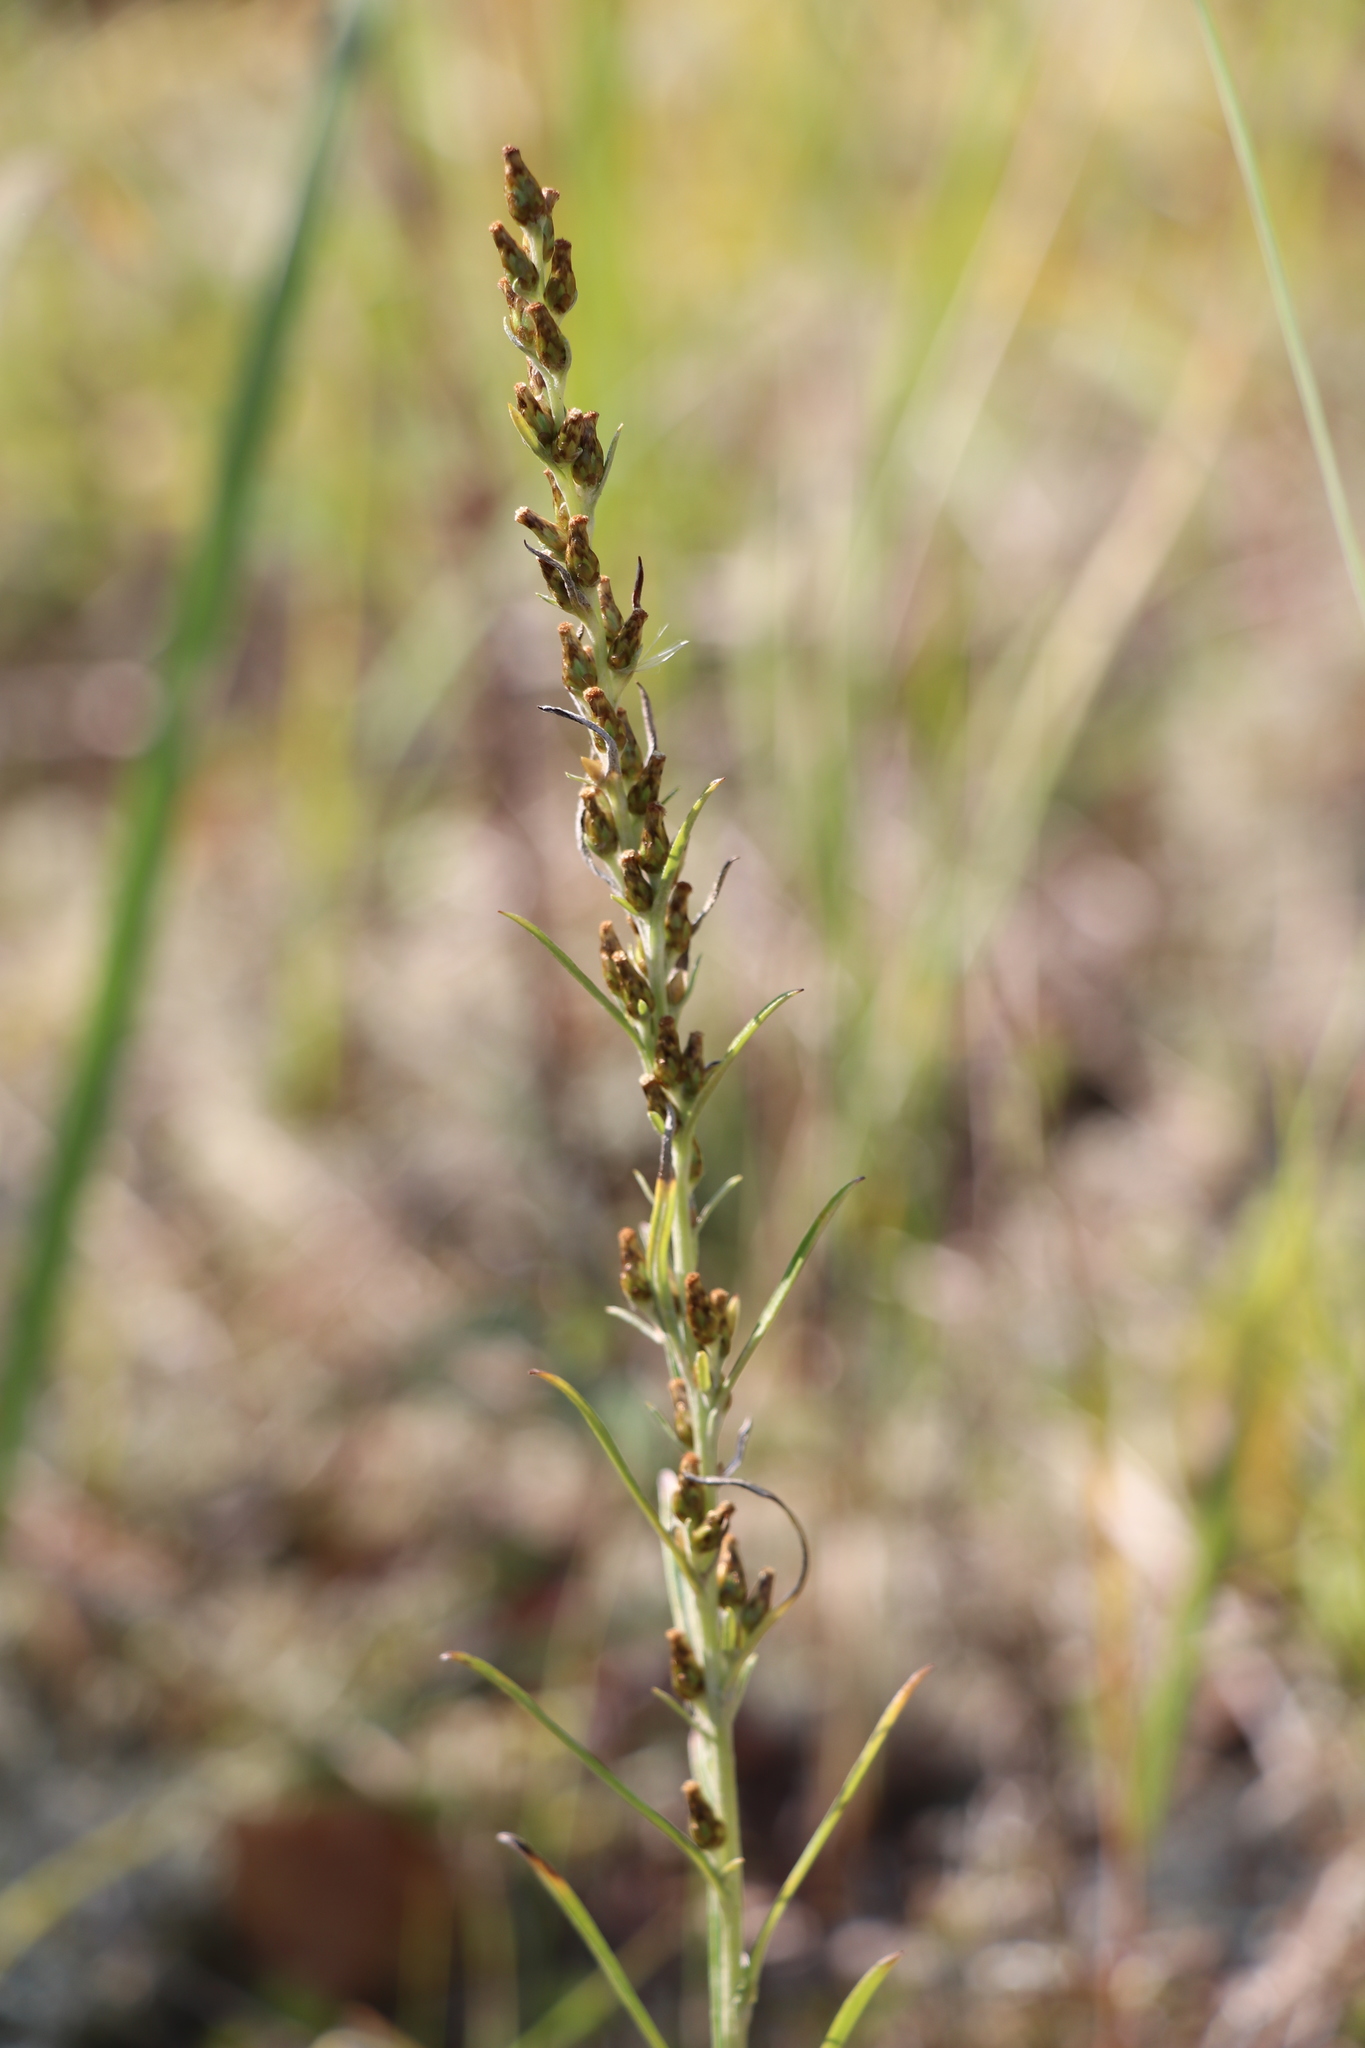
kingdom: Plantae
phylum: Tracheophyta
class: Magnoliopsida
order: Asterales
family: Asteraceae
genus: Omalotheca
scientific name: Omalotheca sylvatica
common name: Heath cudweed
